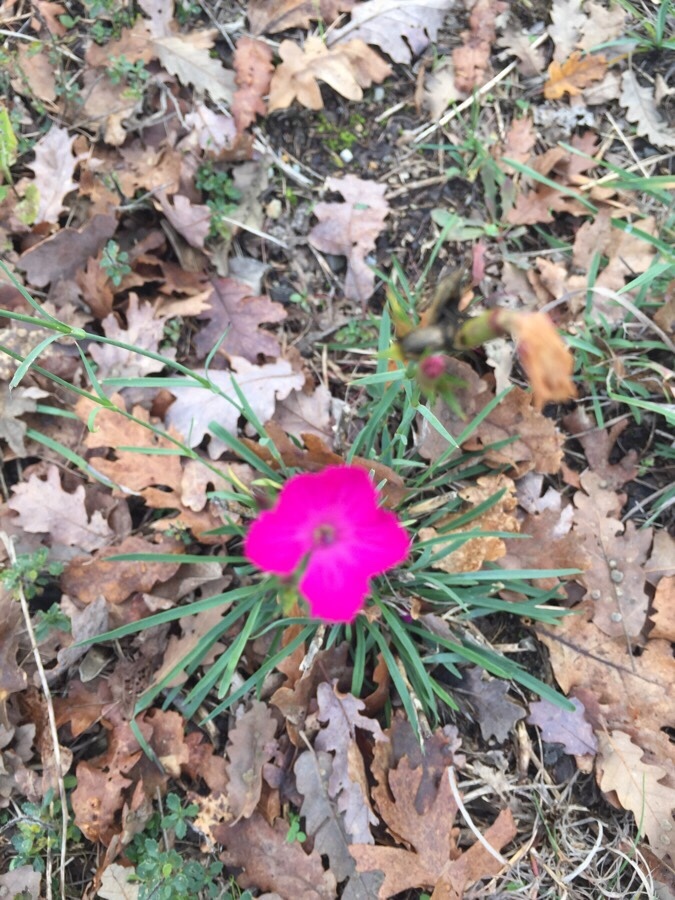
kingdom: Plantae
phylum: Tracheophyta
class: Magnoliopsida
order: Caryophyllales
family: Caryophyllaceae
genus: Dianthus
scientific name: Dianthus balbisii
